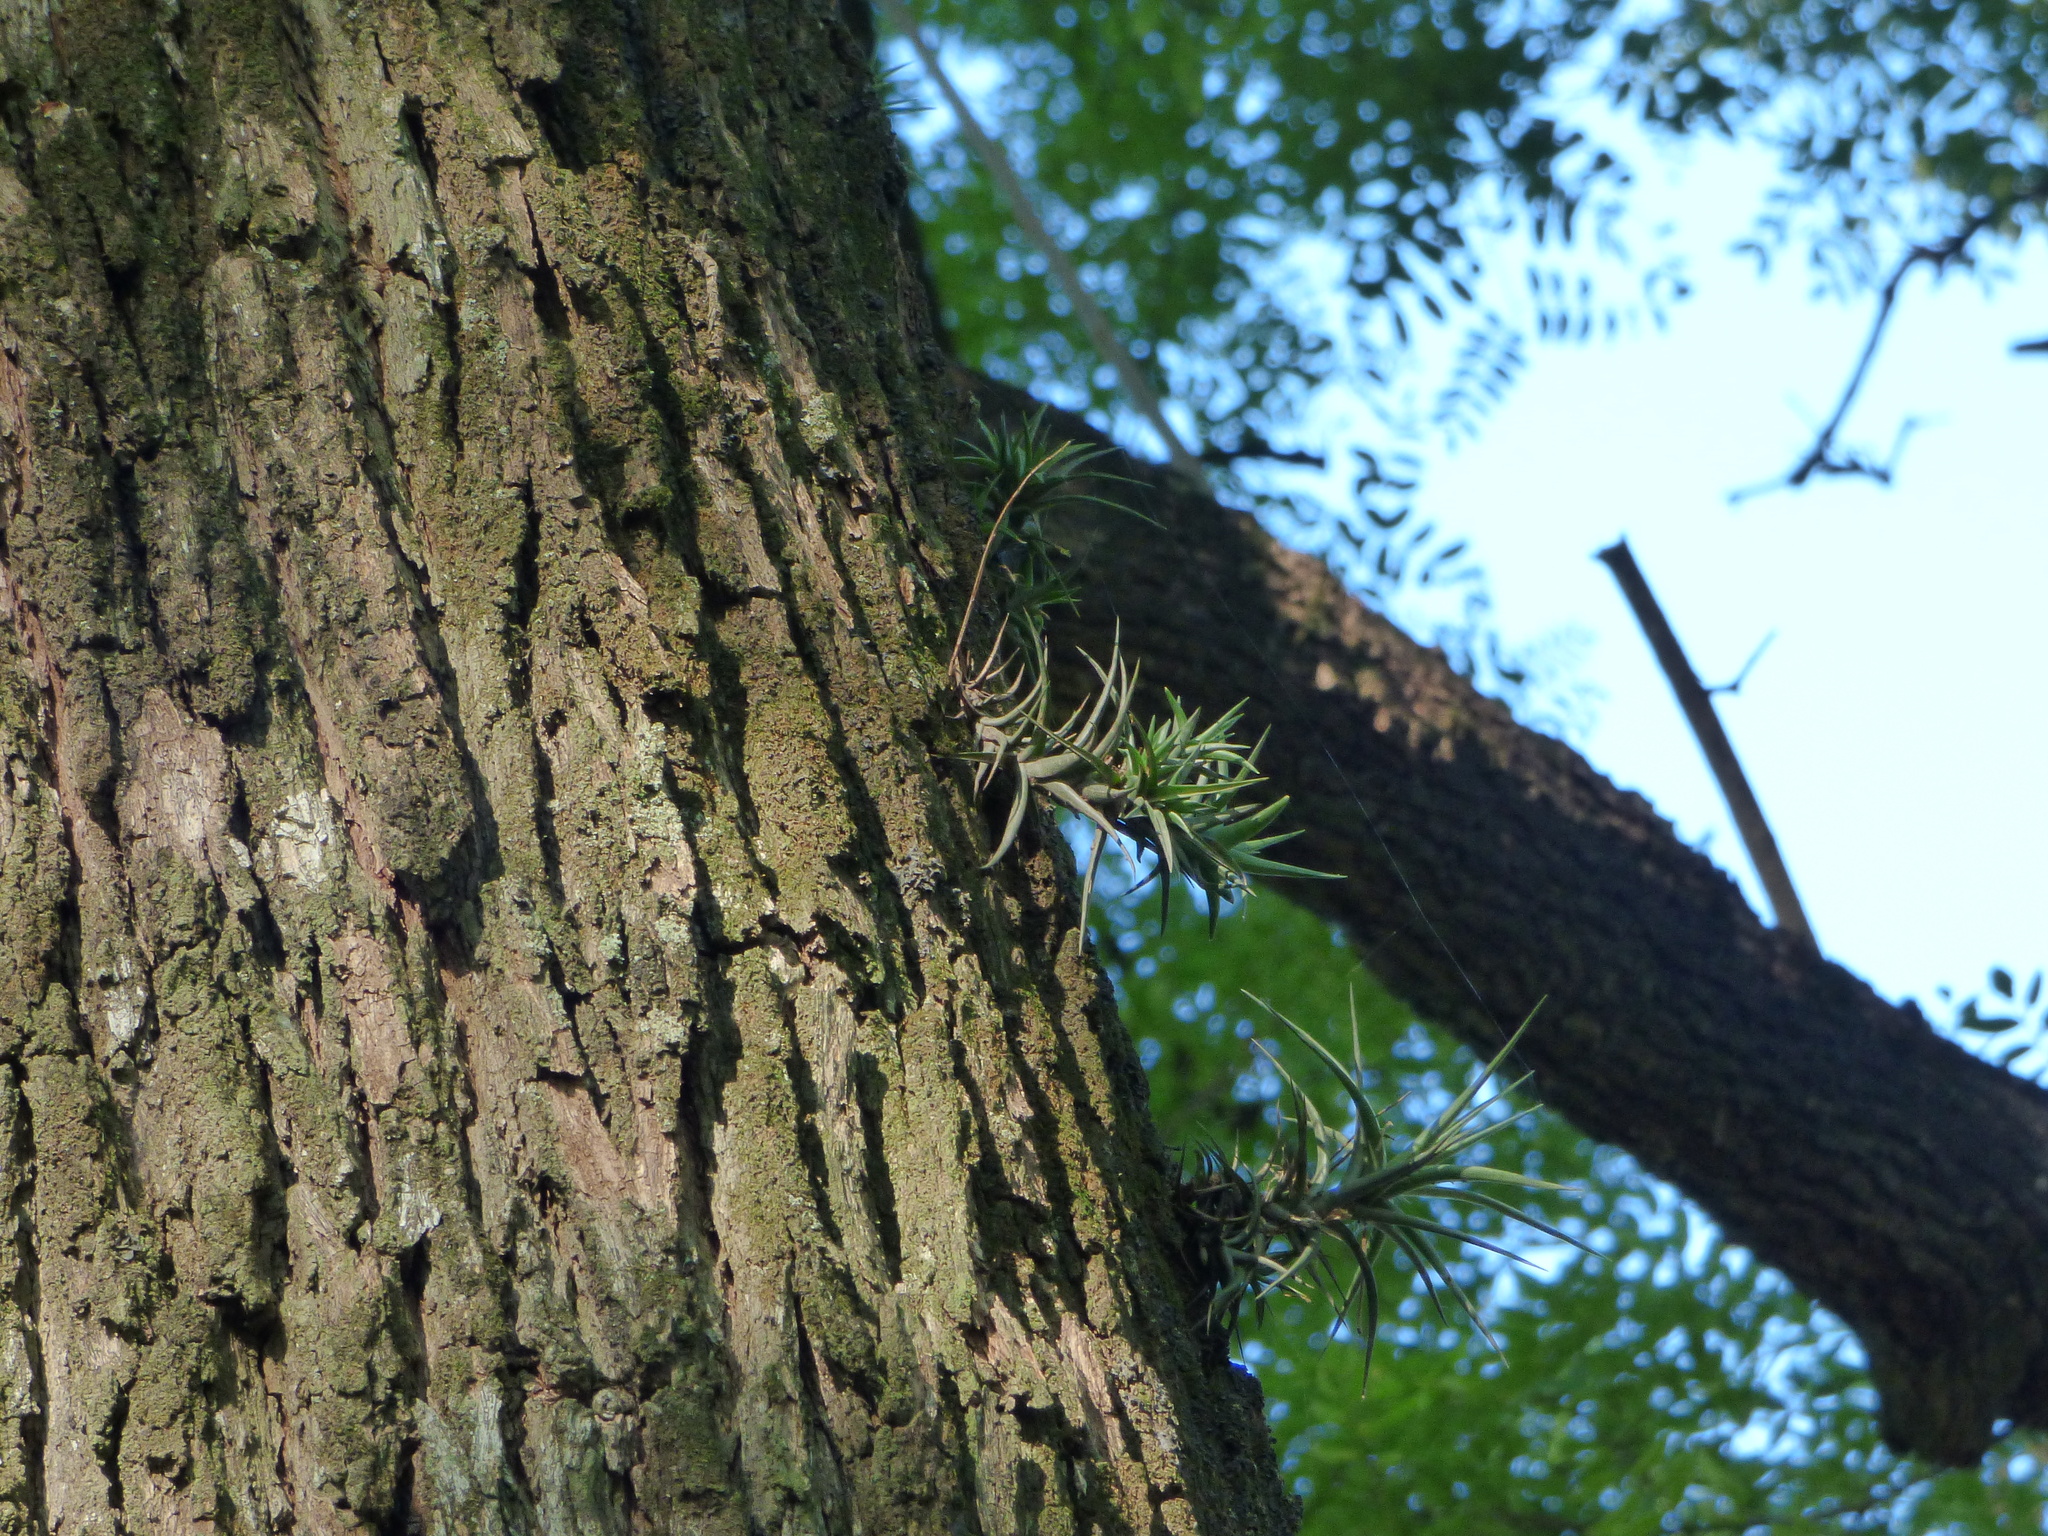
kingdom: Plantae
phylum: Tracheophyta
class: Liliopsida
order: Poales
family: Bromeliaceae
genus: Tillandsia
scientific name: Tillandsia aeranthos
